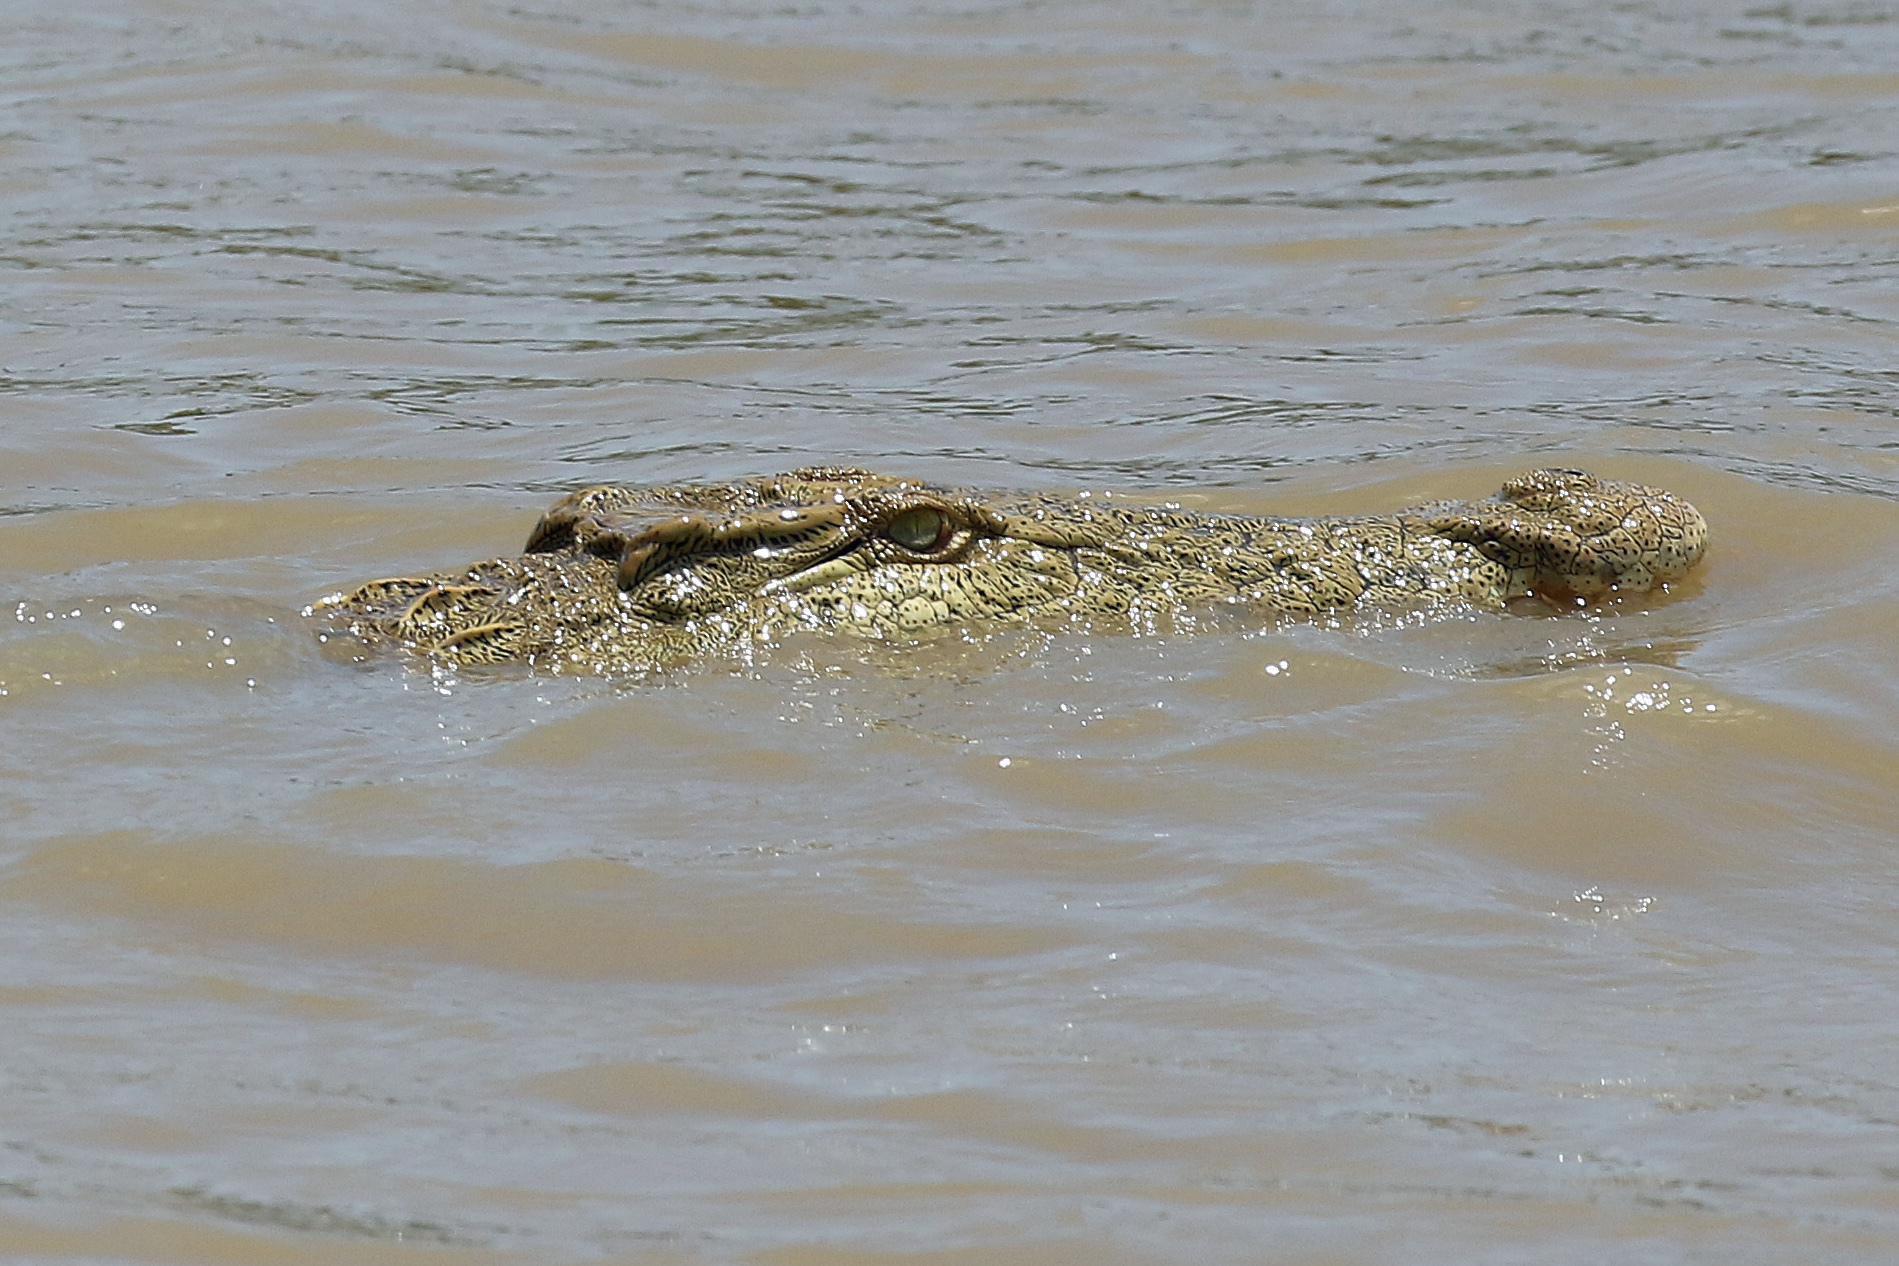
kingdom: Animalia
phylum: Chordata
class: Crocodylia
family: Crocodylidae
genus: Crocodylus
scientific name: Crocodylus niloticus
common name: Nile crocodile
